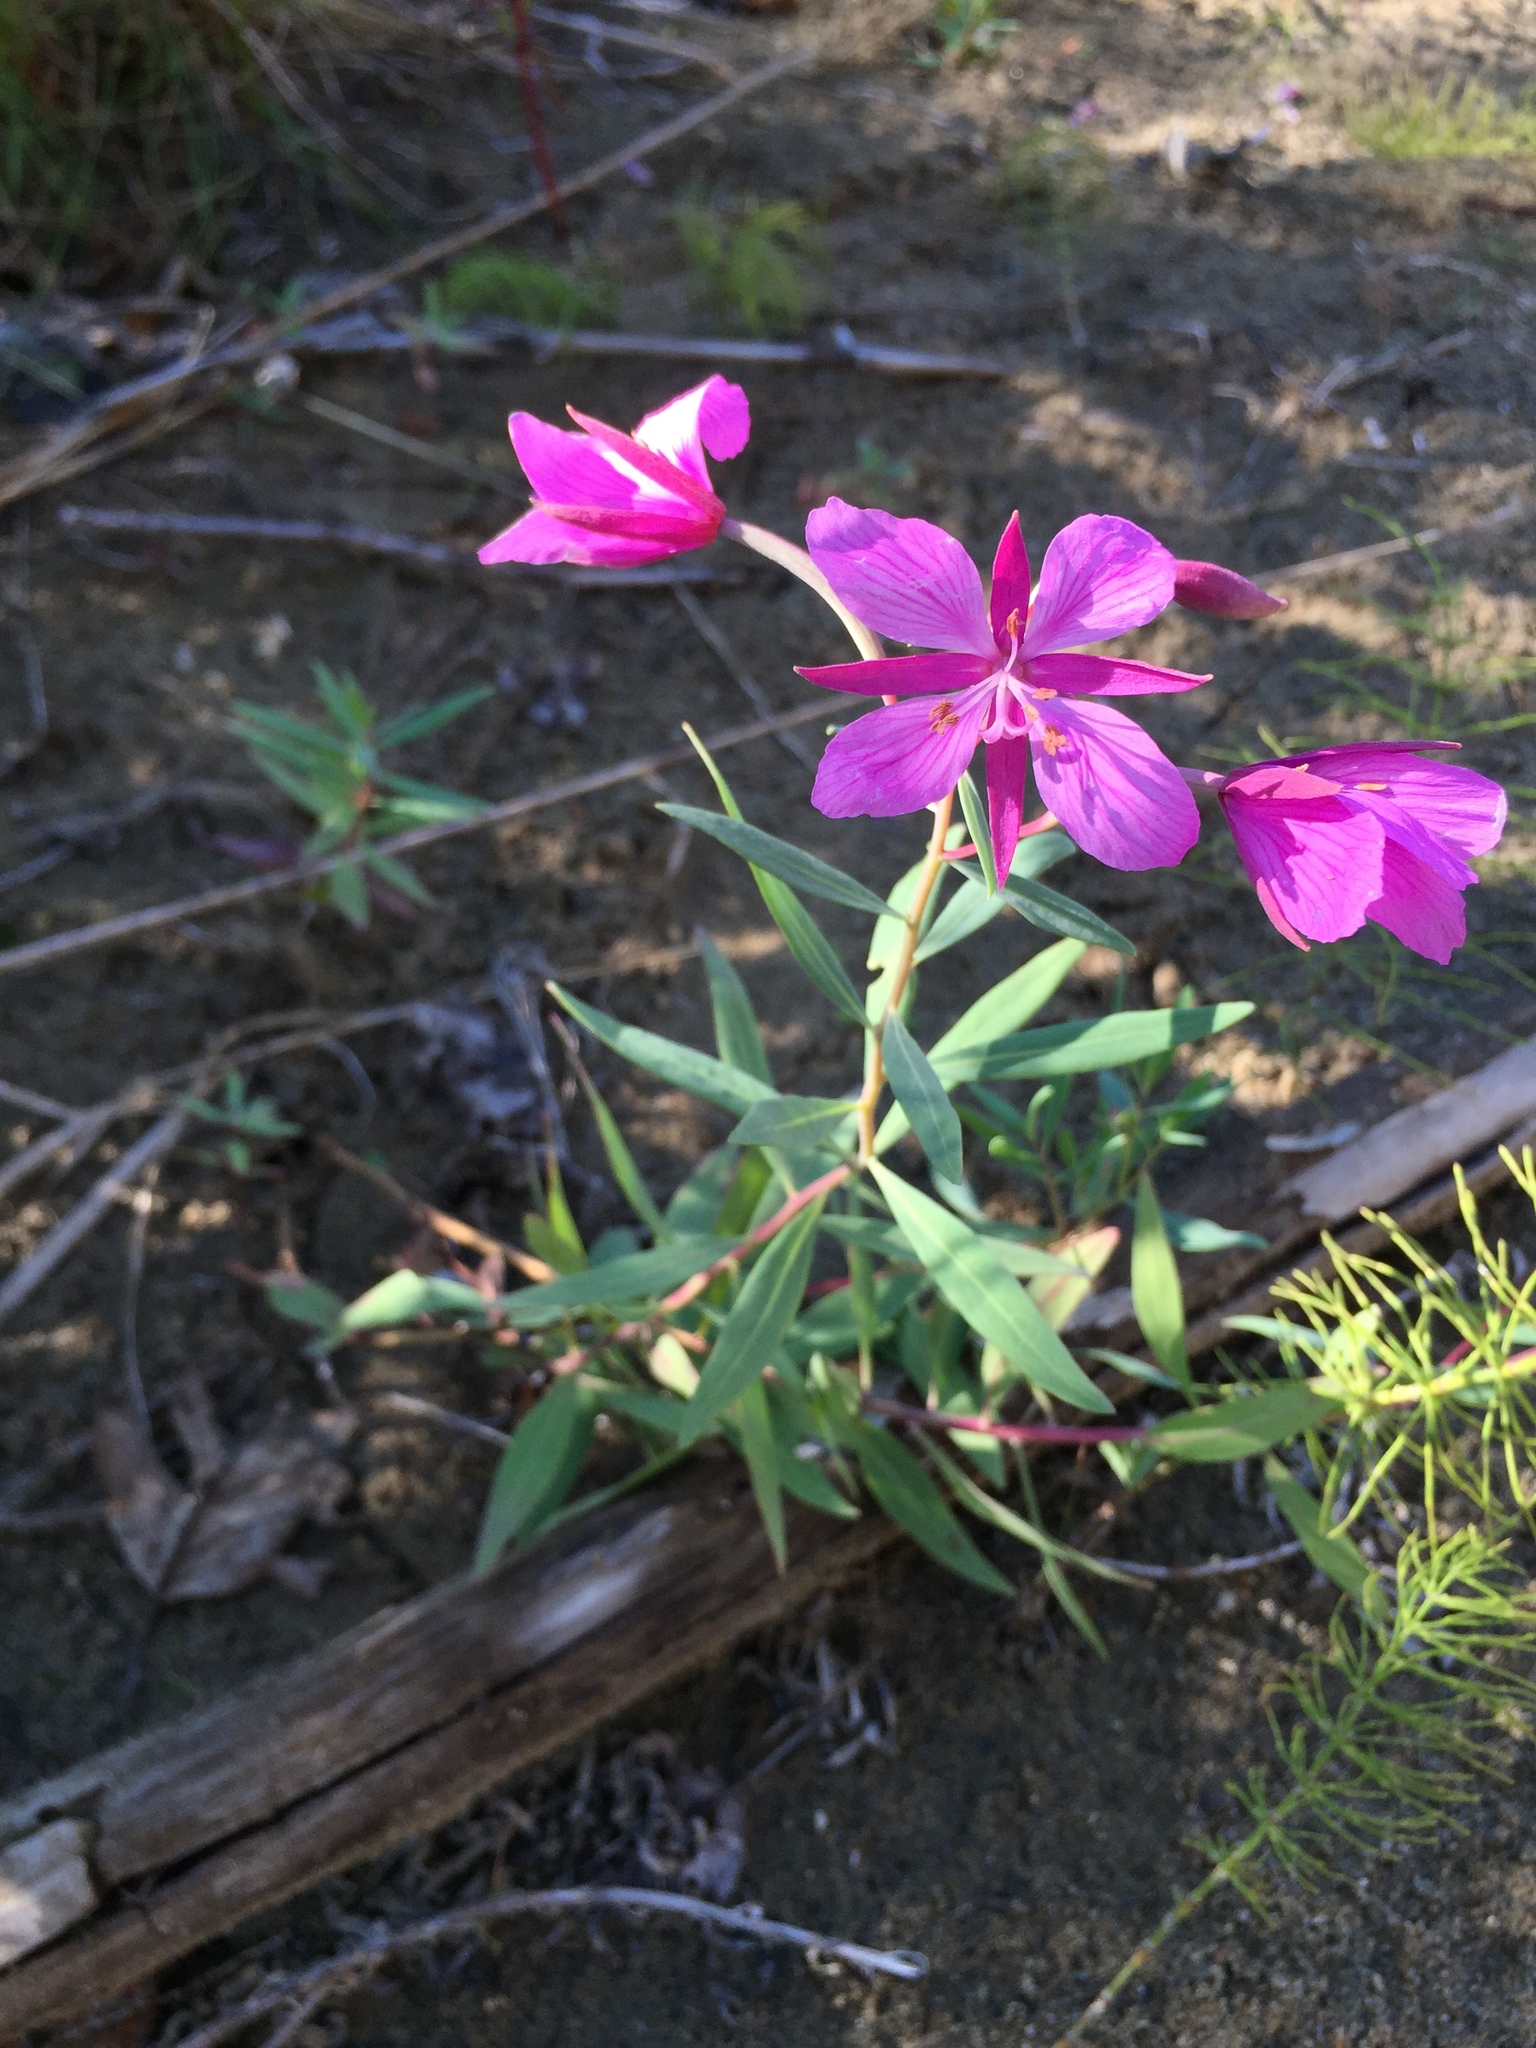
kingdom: Plantae
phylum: Tracheophyta
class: Magnoliopsida
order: Myrtales
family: Onagraceae
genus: Chamaenerion
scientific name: Chamaenerion latifolium
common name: Dwarf fireweed
